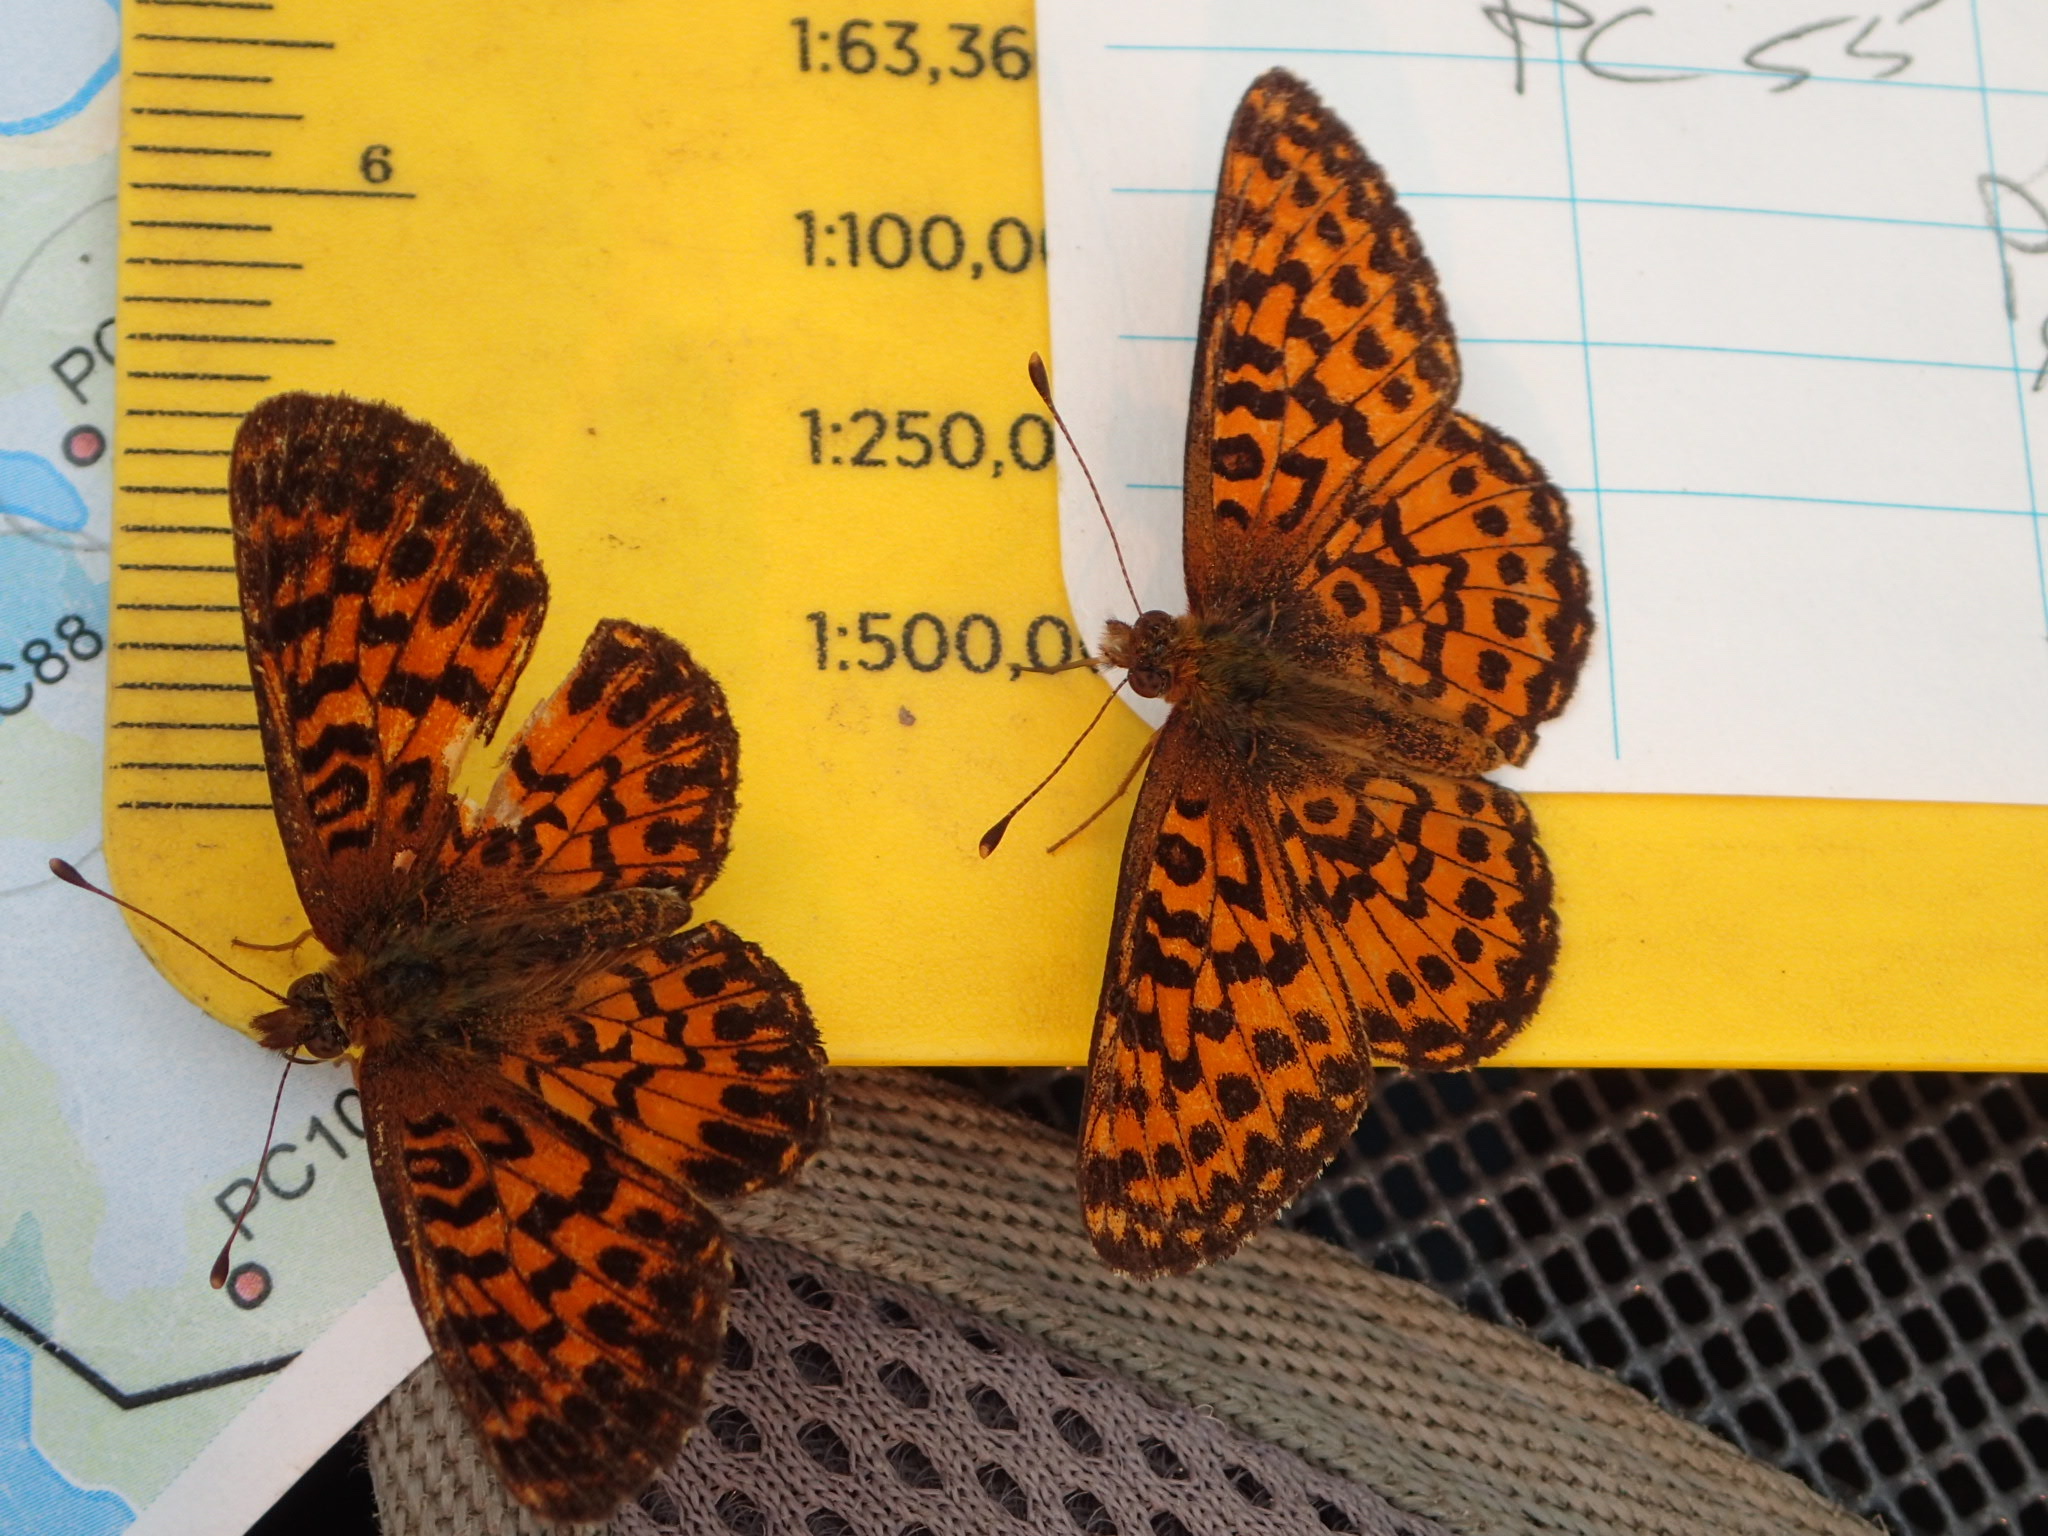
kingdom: Animalia
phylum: Arthropoda
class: Insecta
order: Lepidoptera
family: Nymphalidae
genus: Boloria
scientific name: Boloria chariclea
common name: Arctic fritillary
